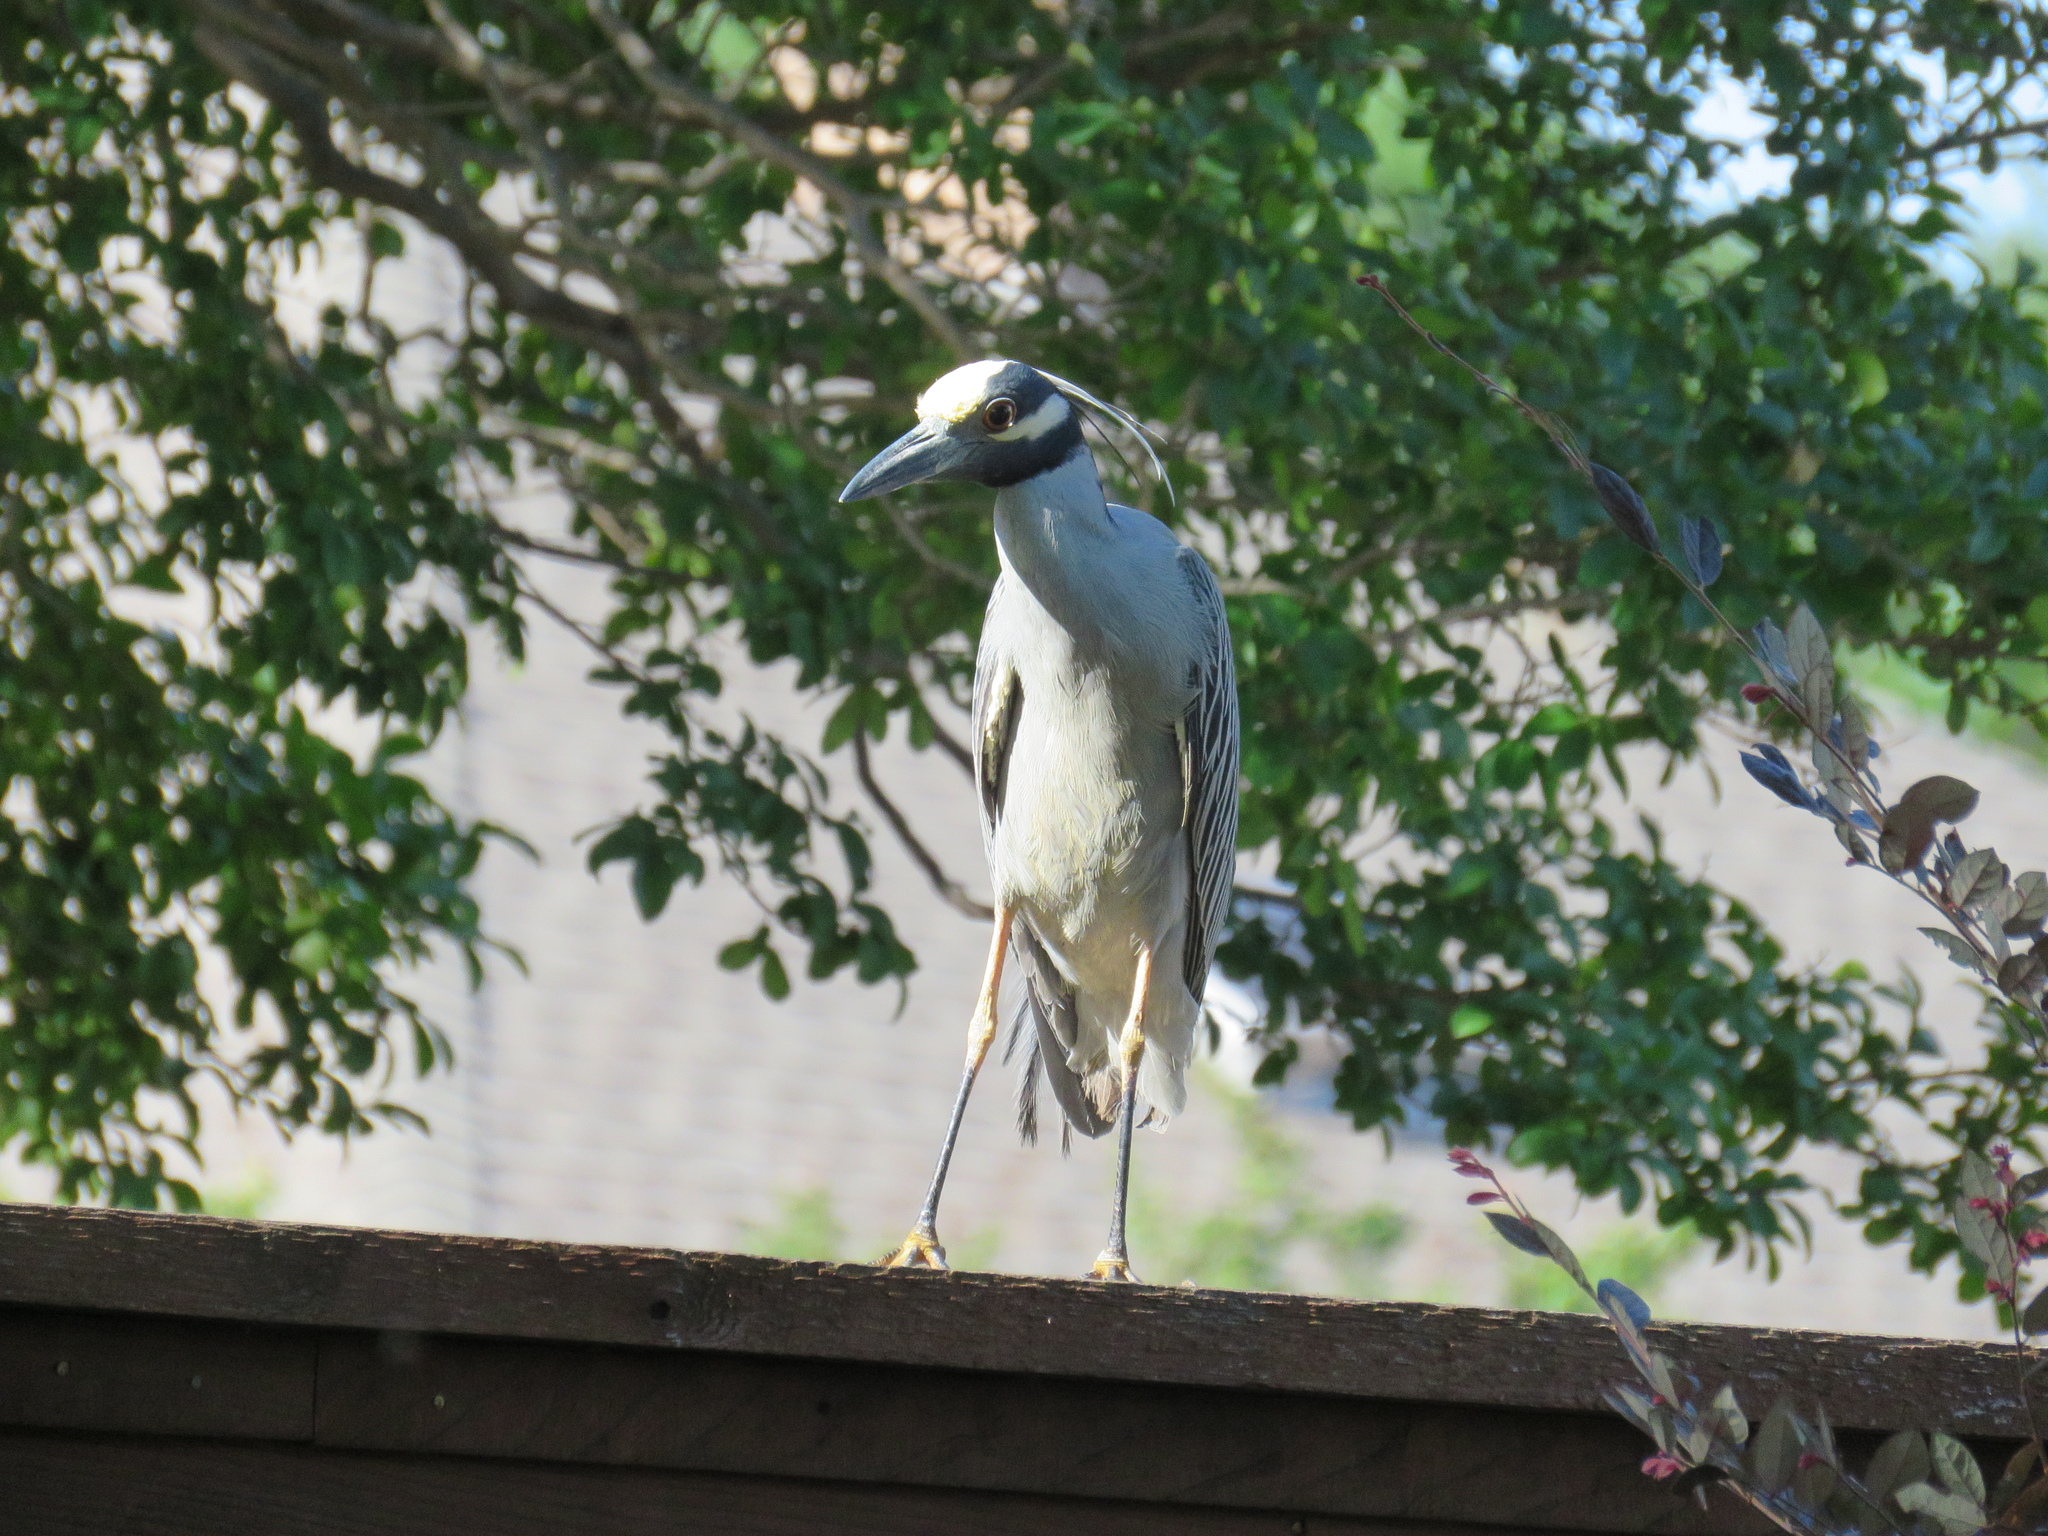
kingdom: Animalia
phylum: Chordata
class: Aves
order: Pelecaniformes
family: Ardeidae
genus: Nyctanassa
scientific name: Nyctanassa violacea
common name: Yellow-crowned night heron
